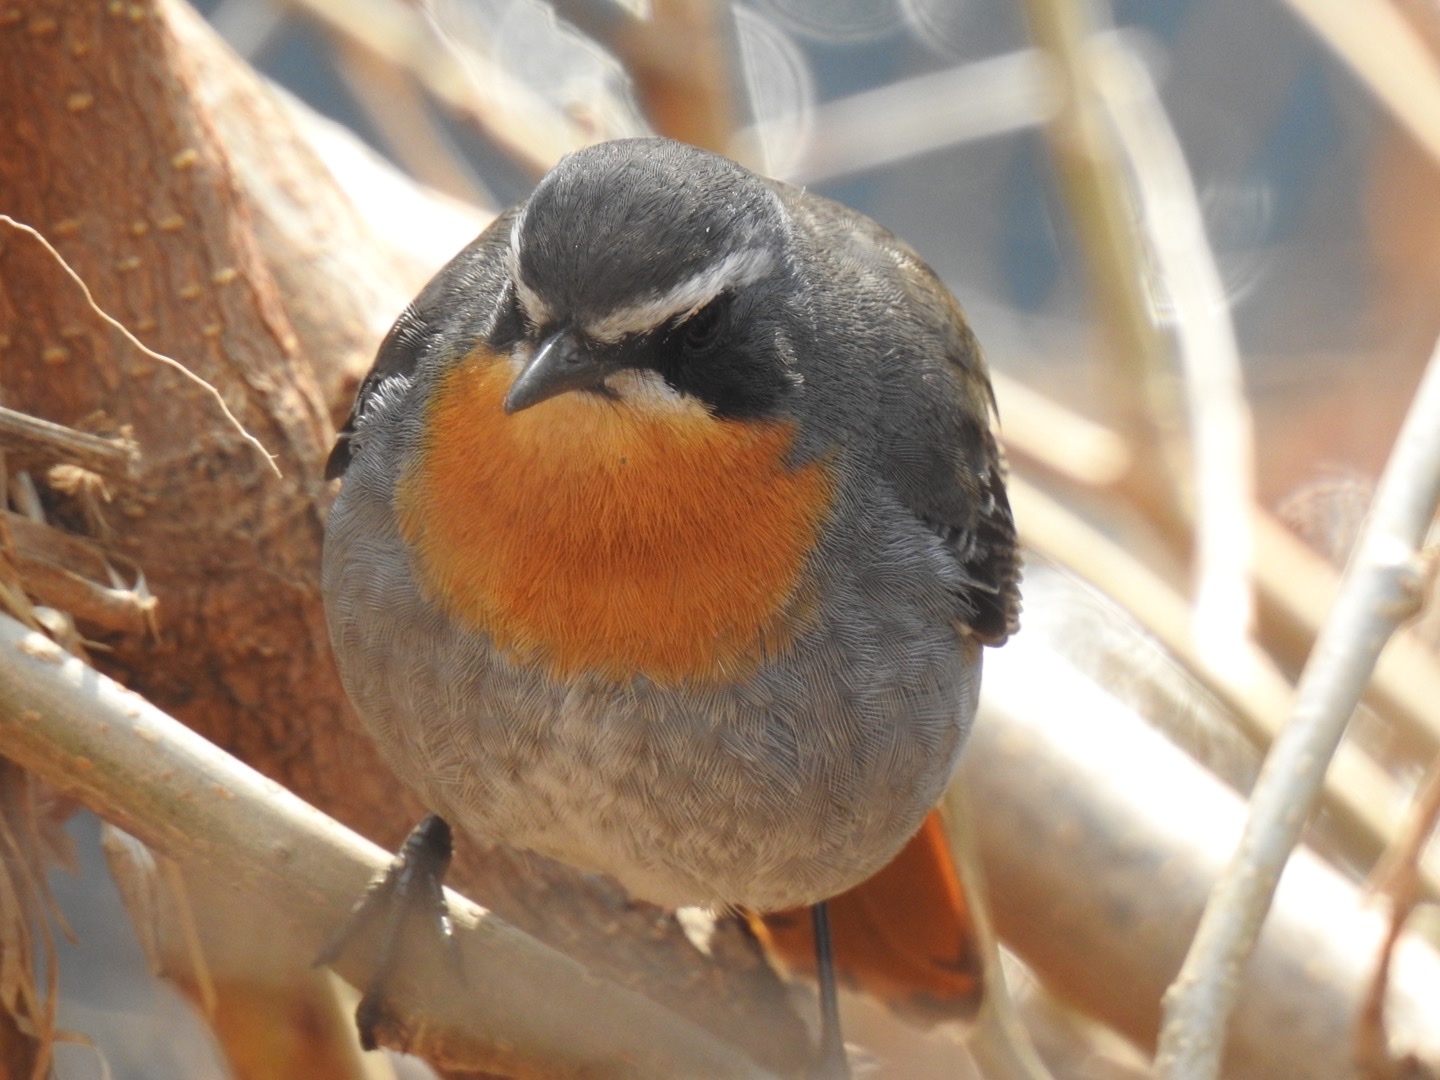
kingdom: Animalia
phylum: Chordata
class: Aves
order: Passeriformes
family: Muscicapidae
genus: Cossypha
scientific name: Cossypha caffra
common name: Cape robin-chat
